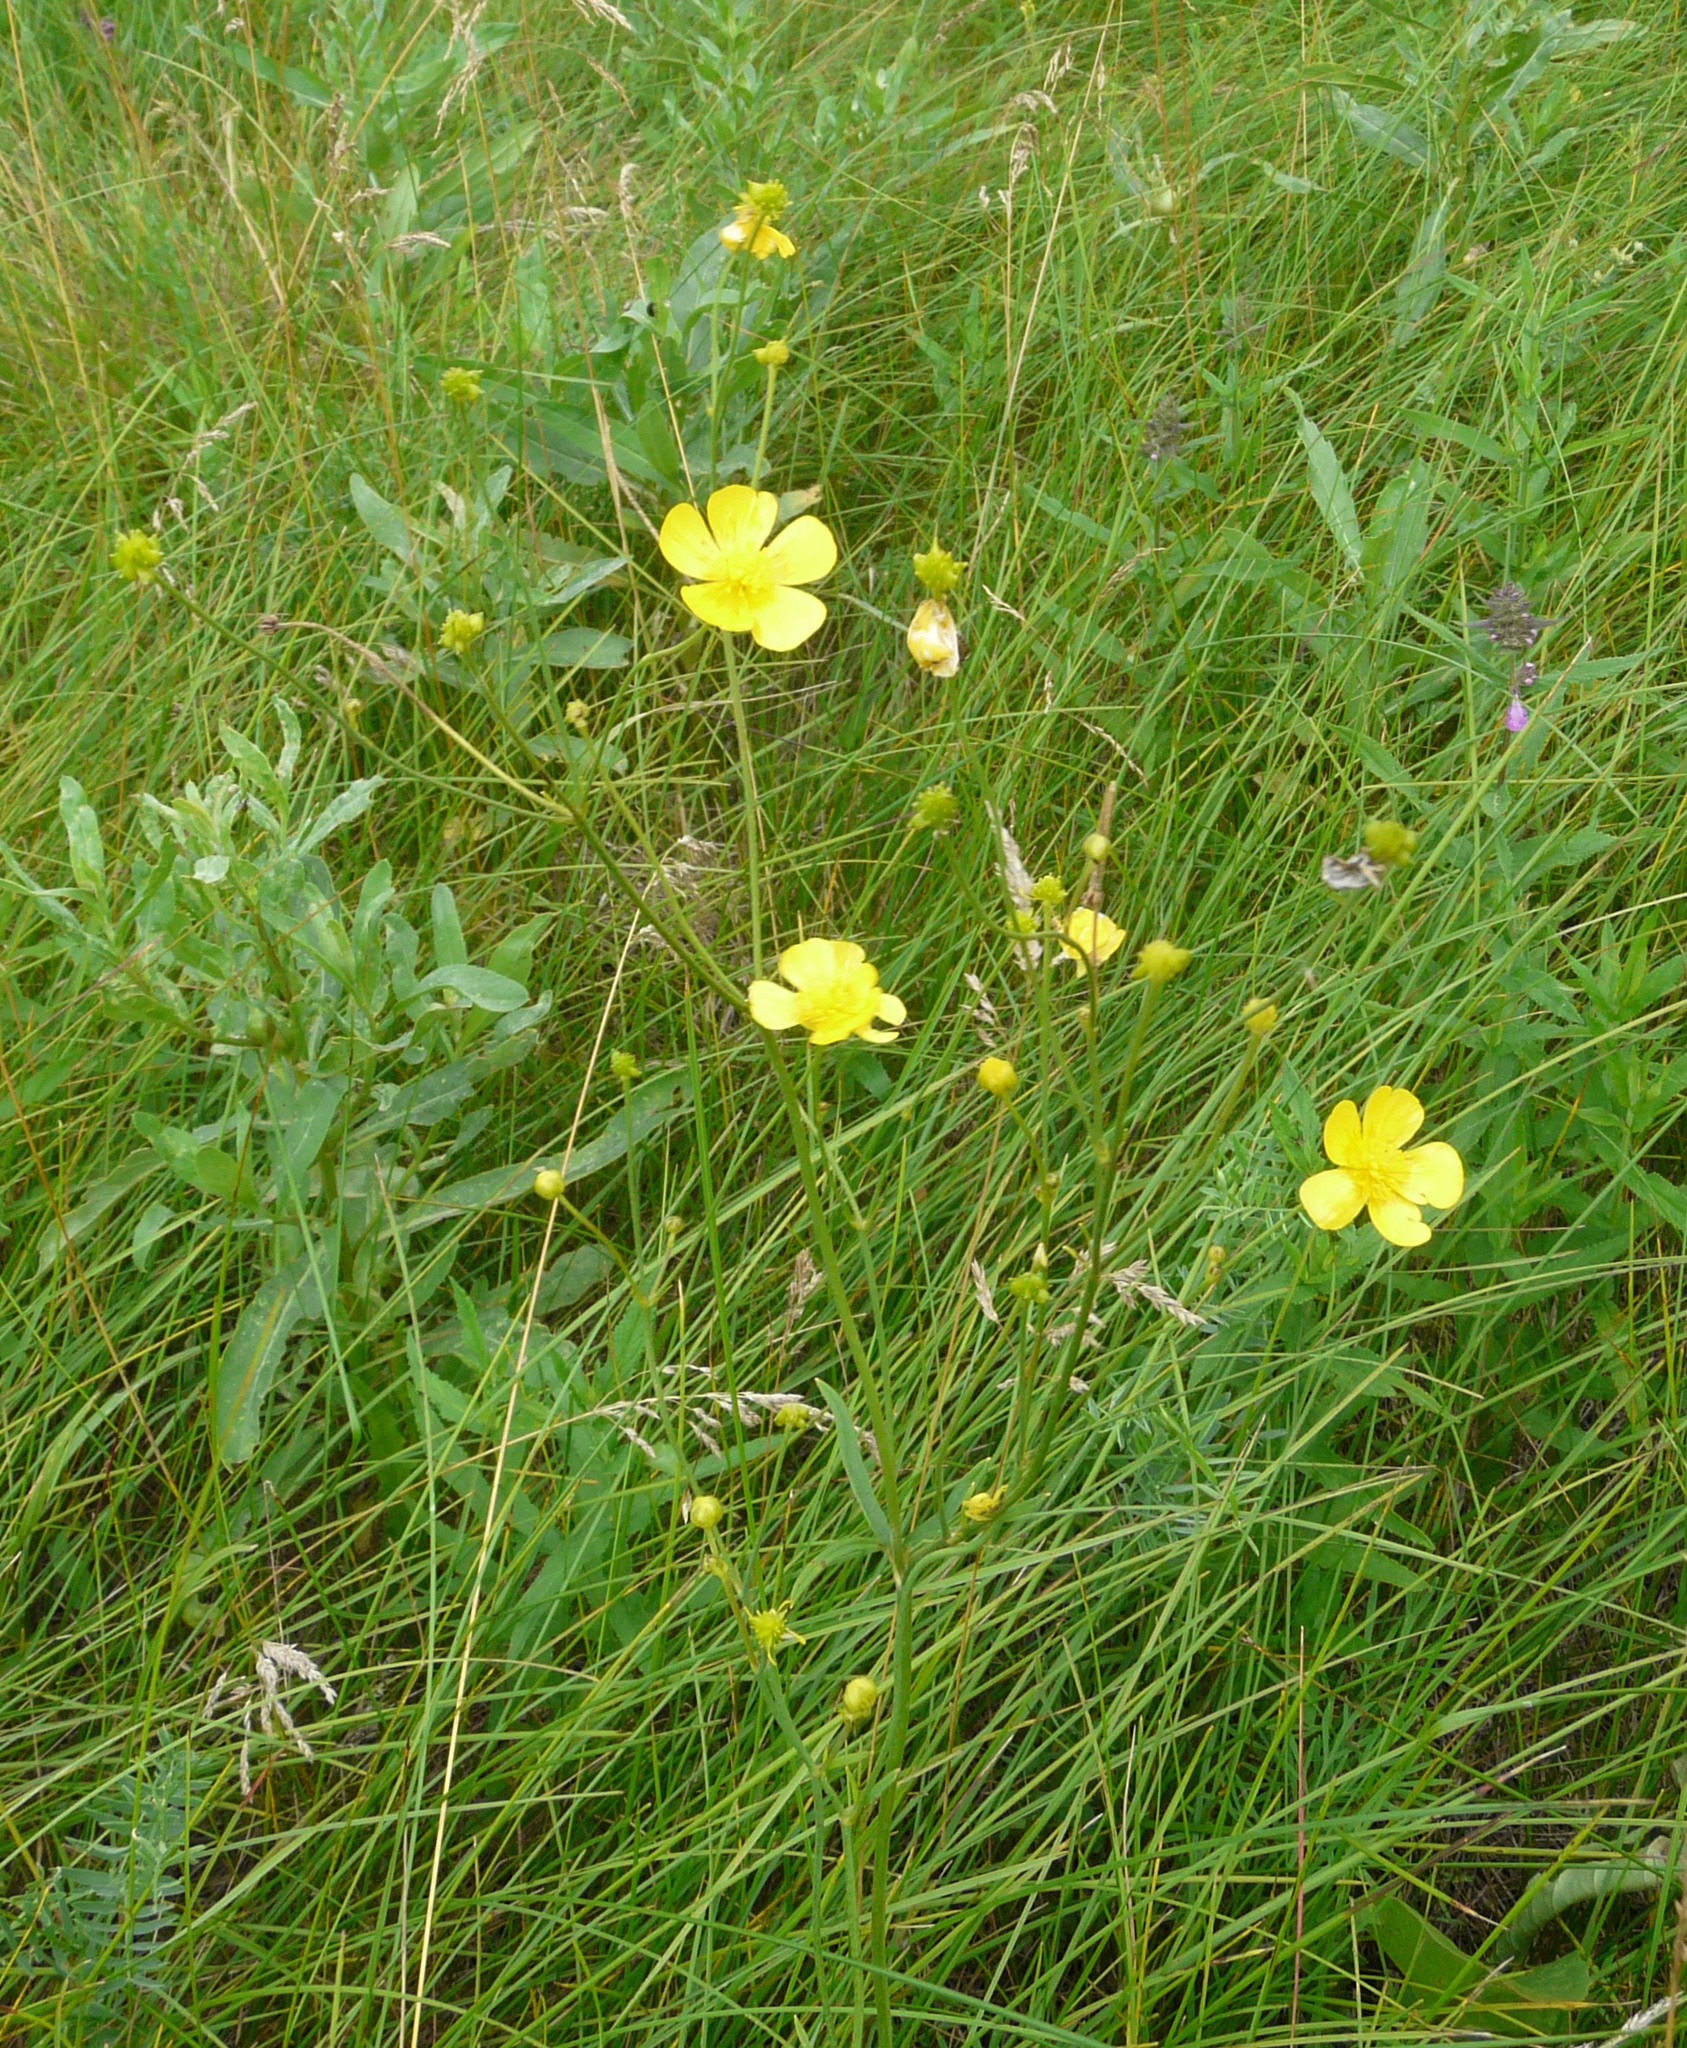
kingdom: Plantae
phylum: Tracheophyta
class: Magnoliopsida
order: Ranunculales
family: Ranunculaceae
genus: Ranunculus
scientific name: Ranunculus acris
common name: Meadow buttercup
